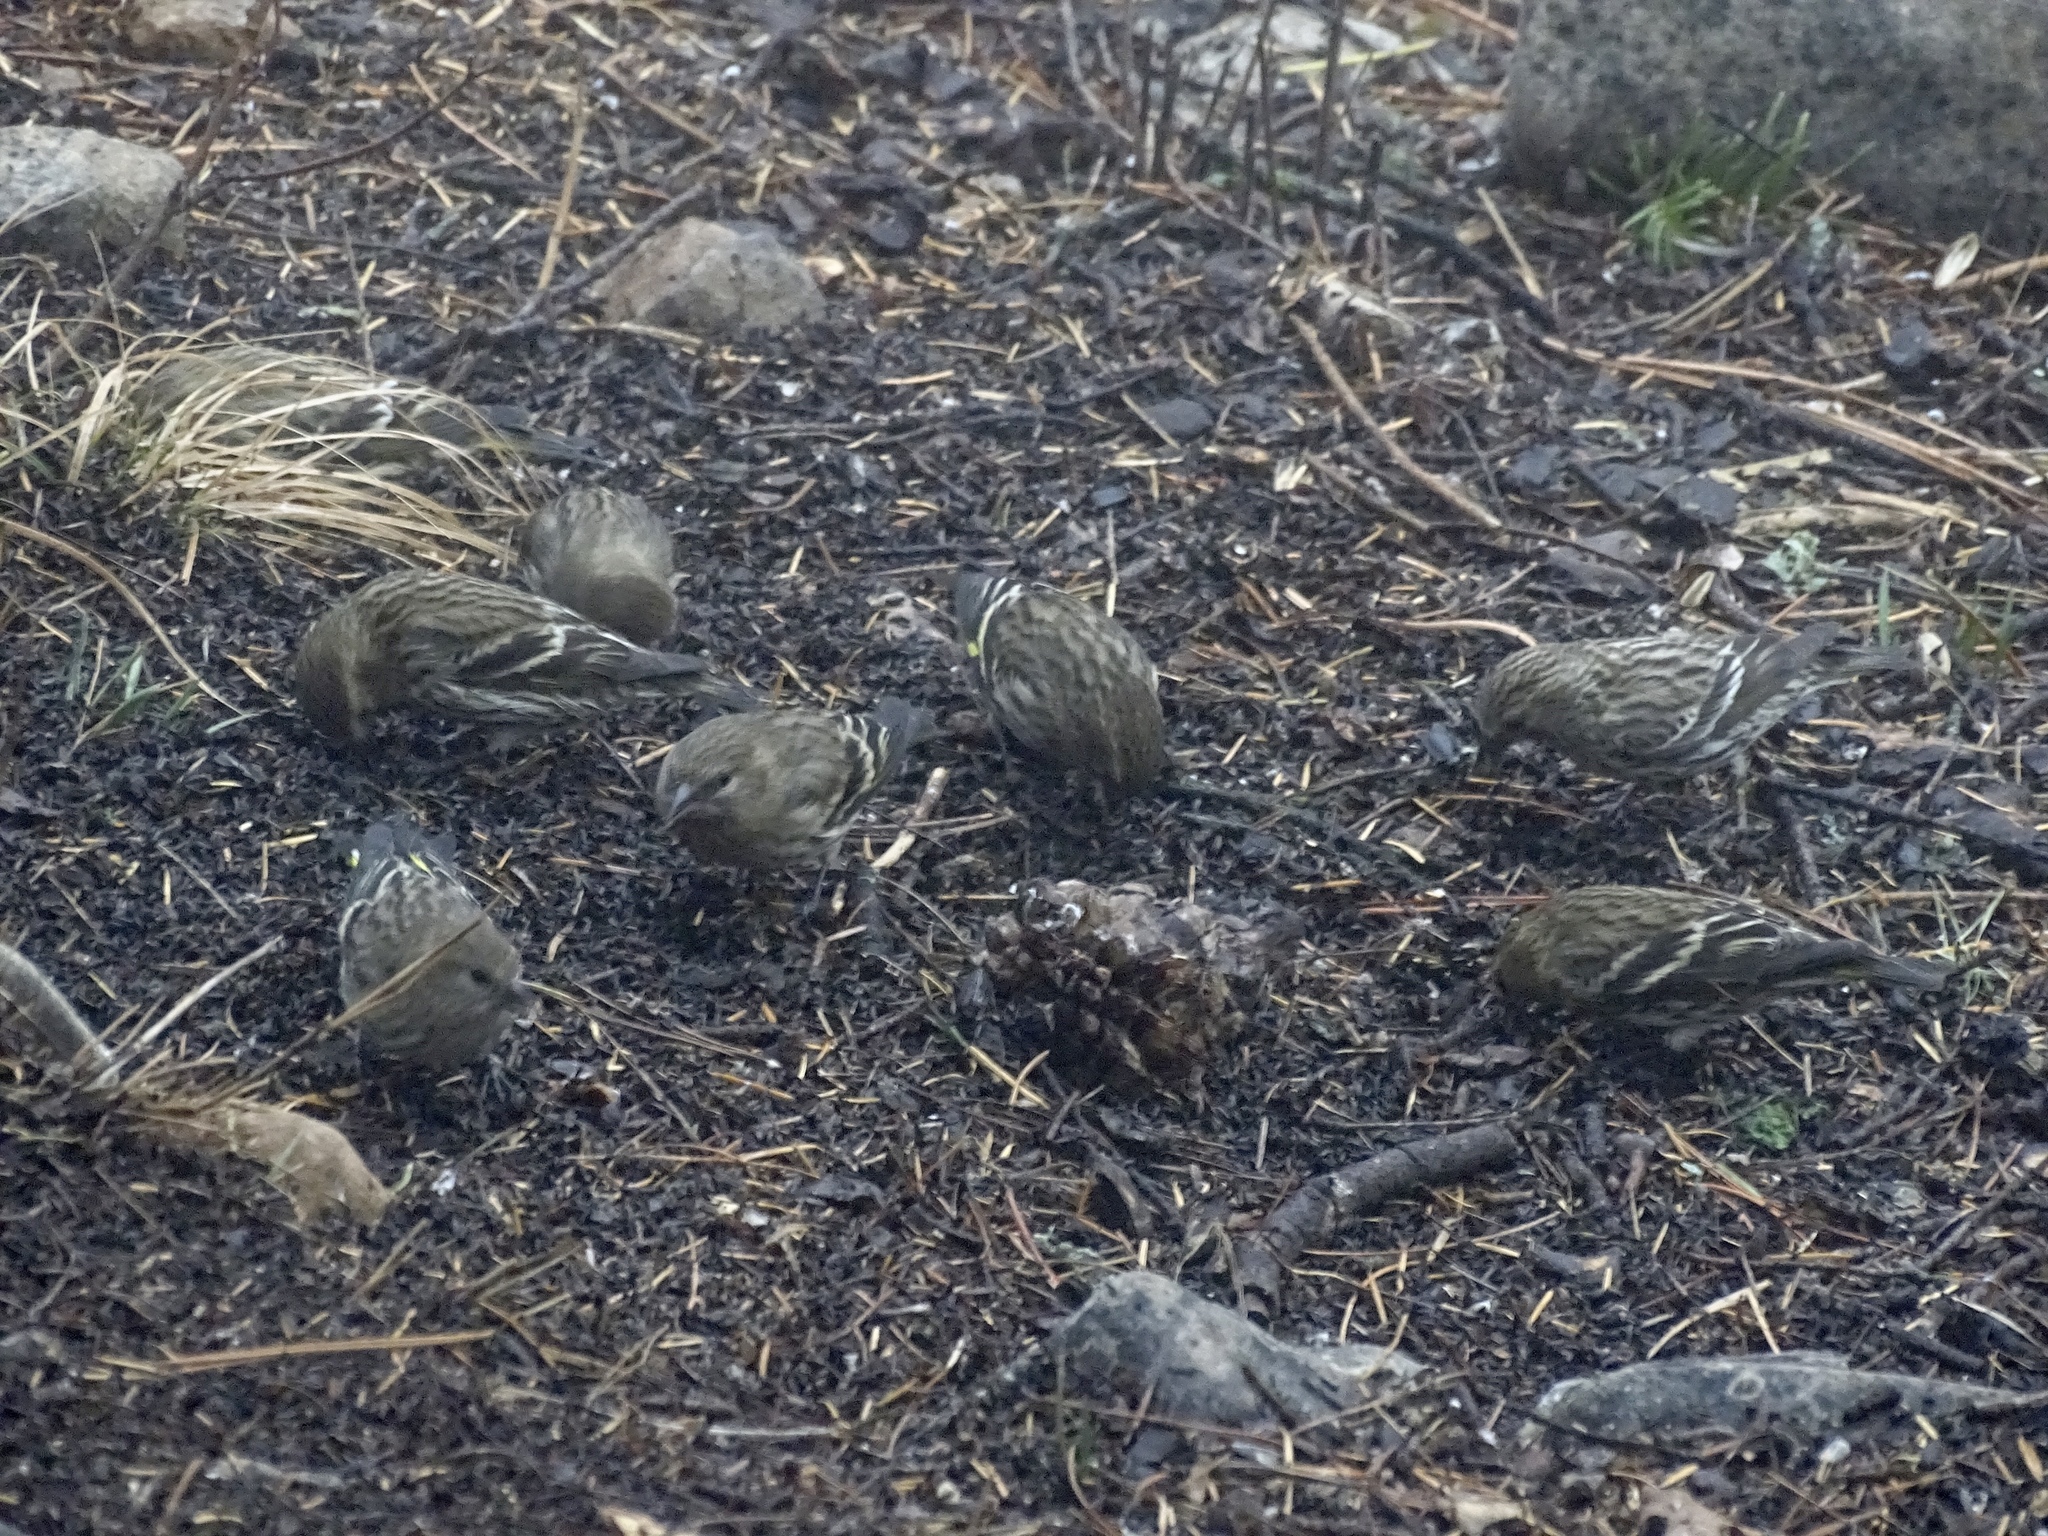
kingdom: Animalia
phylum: Chordata
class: Aves
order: Passeriformes
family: Fringillidae
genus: Spinus
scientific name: Spinus pinus
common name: Pine siskin
